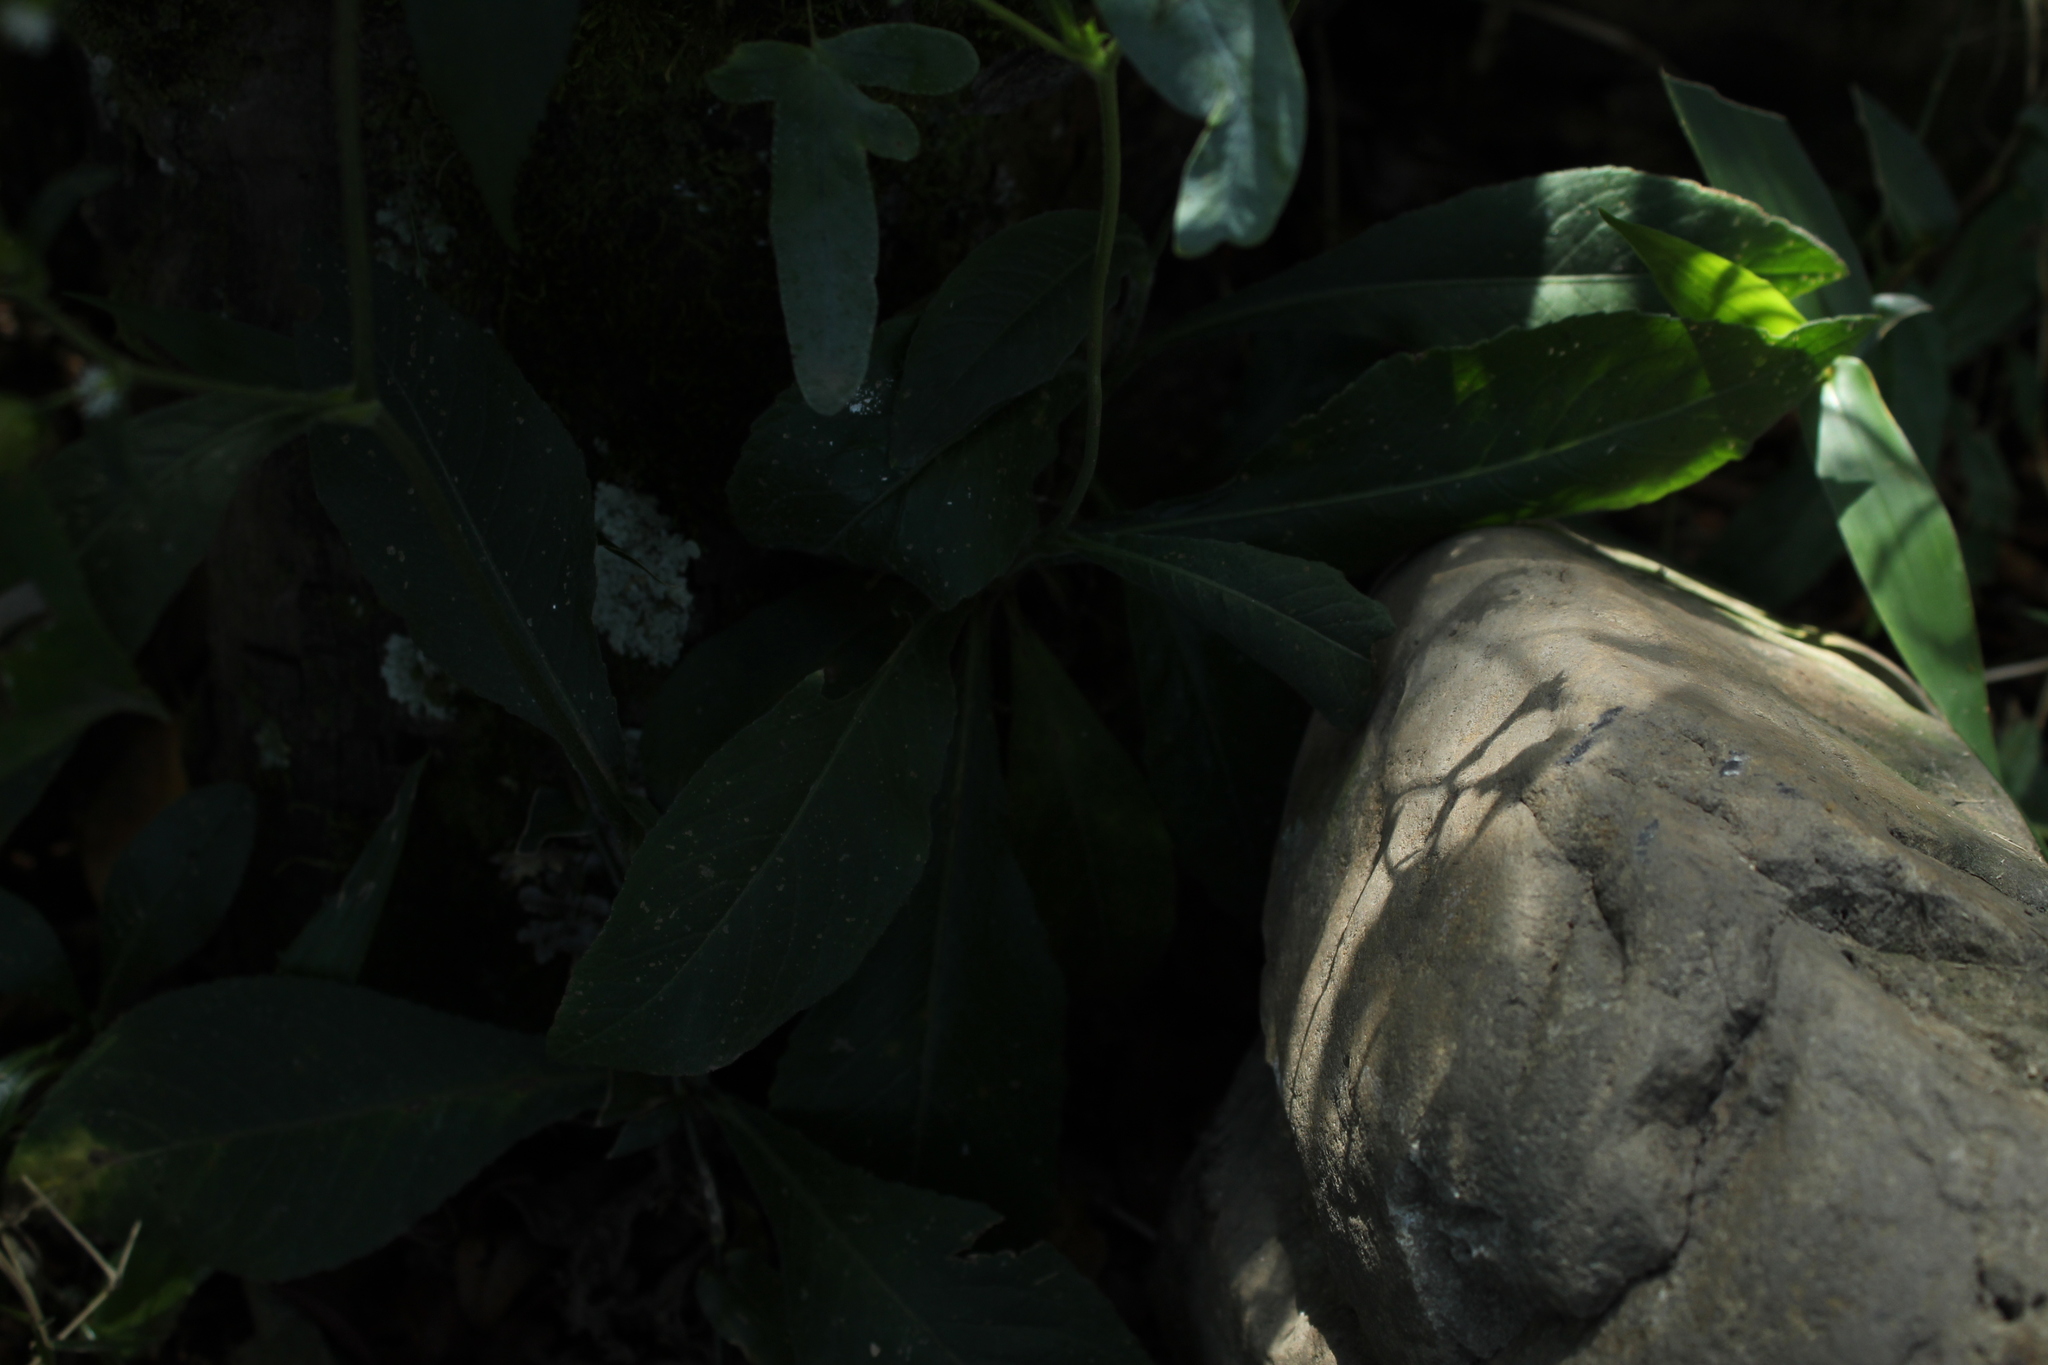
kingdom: Plantae
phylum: Tracheophyta
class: Magnoliopsida
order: Asterales
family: Asteraceae
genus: Elephantopus
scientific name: Elephantopus mollis
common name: Soft elephantsfoot
